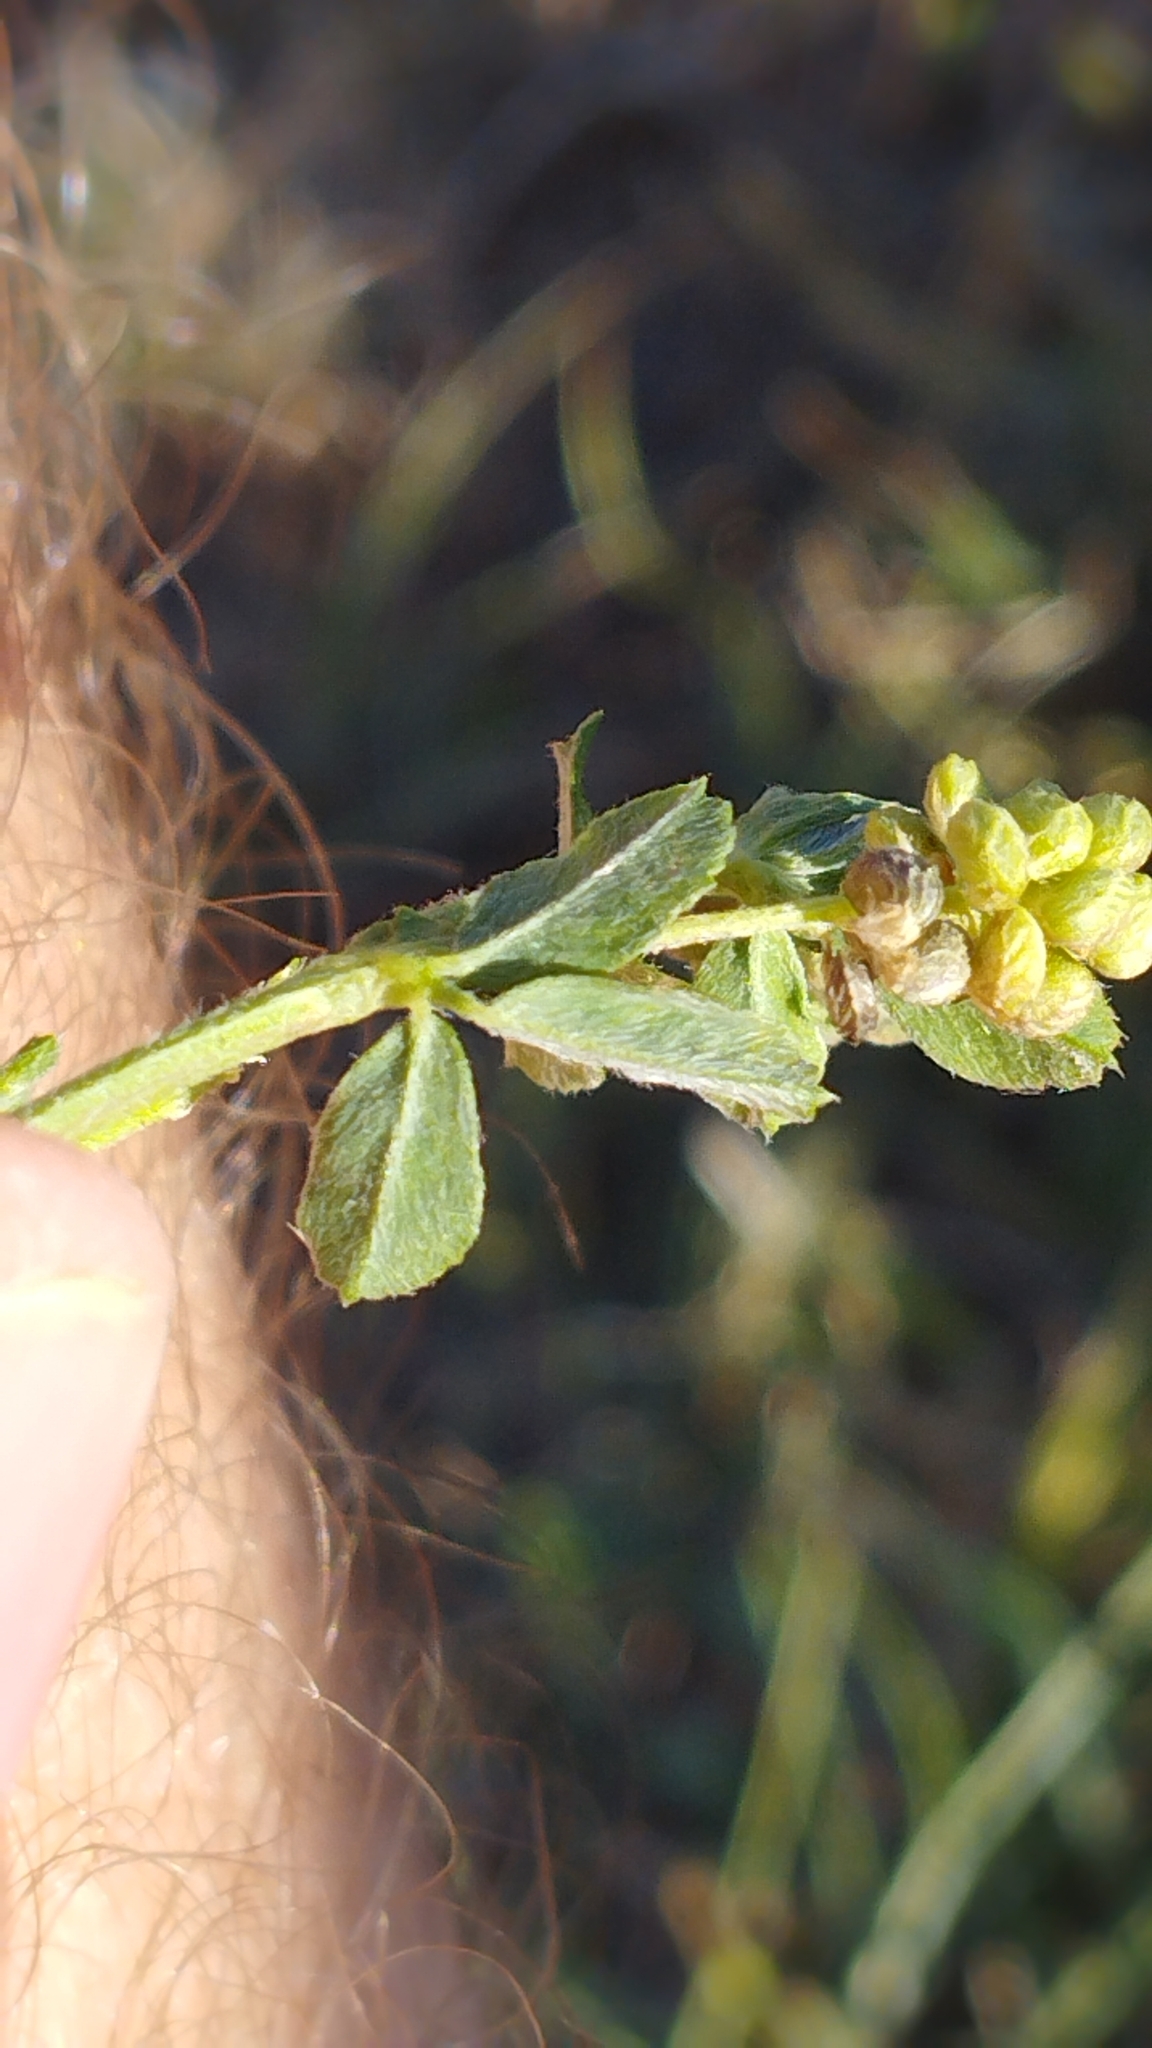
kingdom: Plantae
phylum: Tracheophyta
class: Magnoliopsida
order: Fabales
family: Fabaceae
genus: Medicago
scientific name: Medicago lupulina
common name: Black medick
